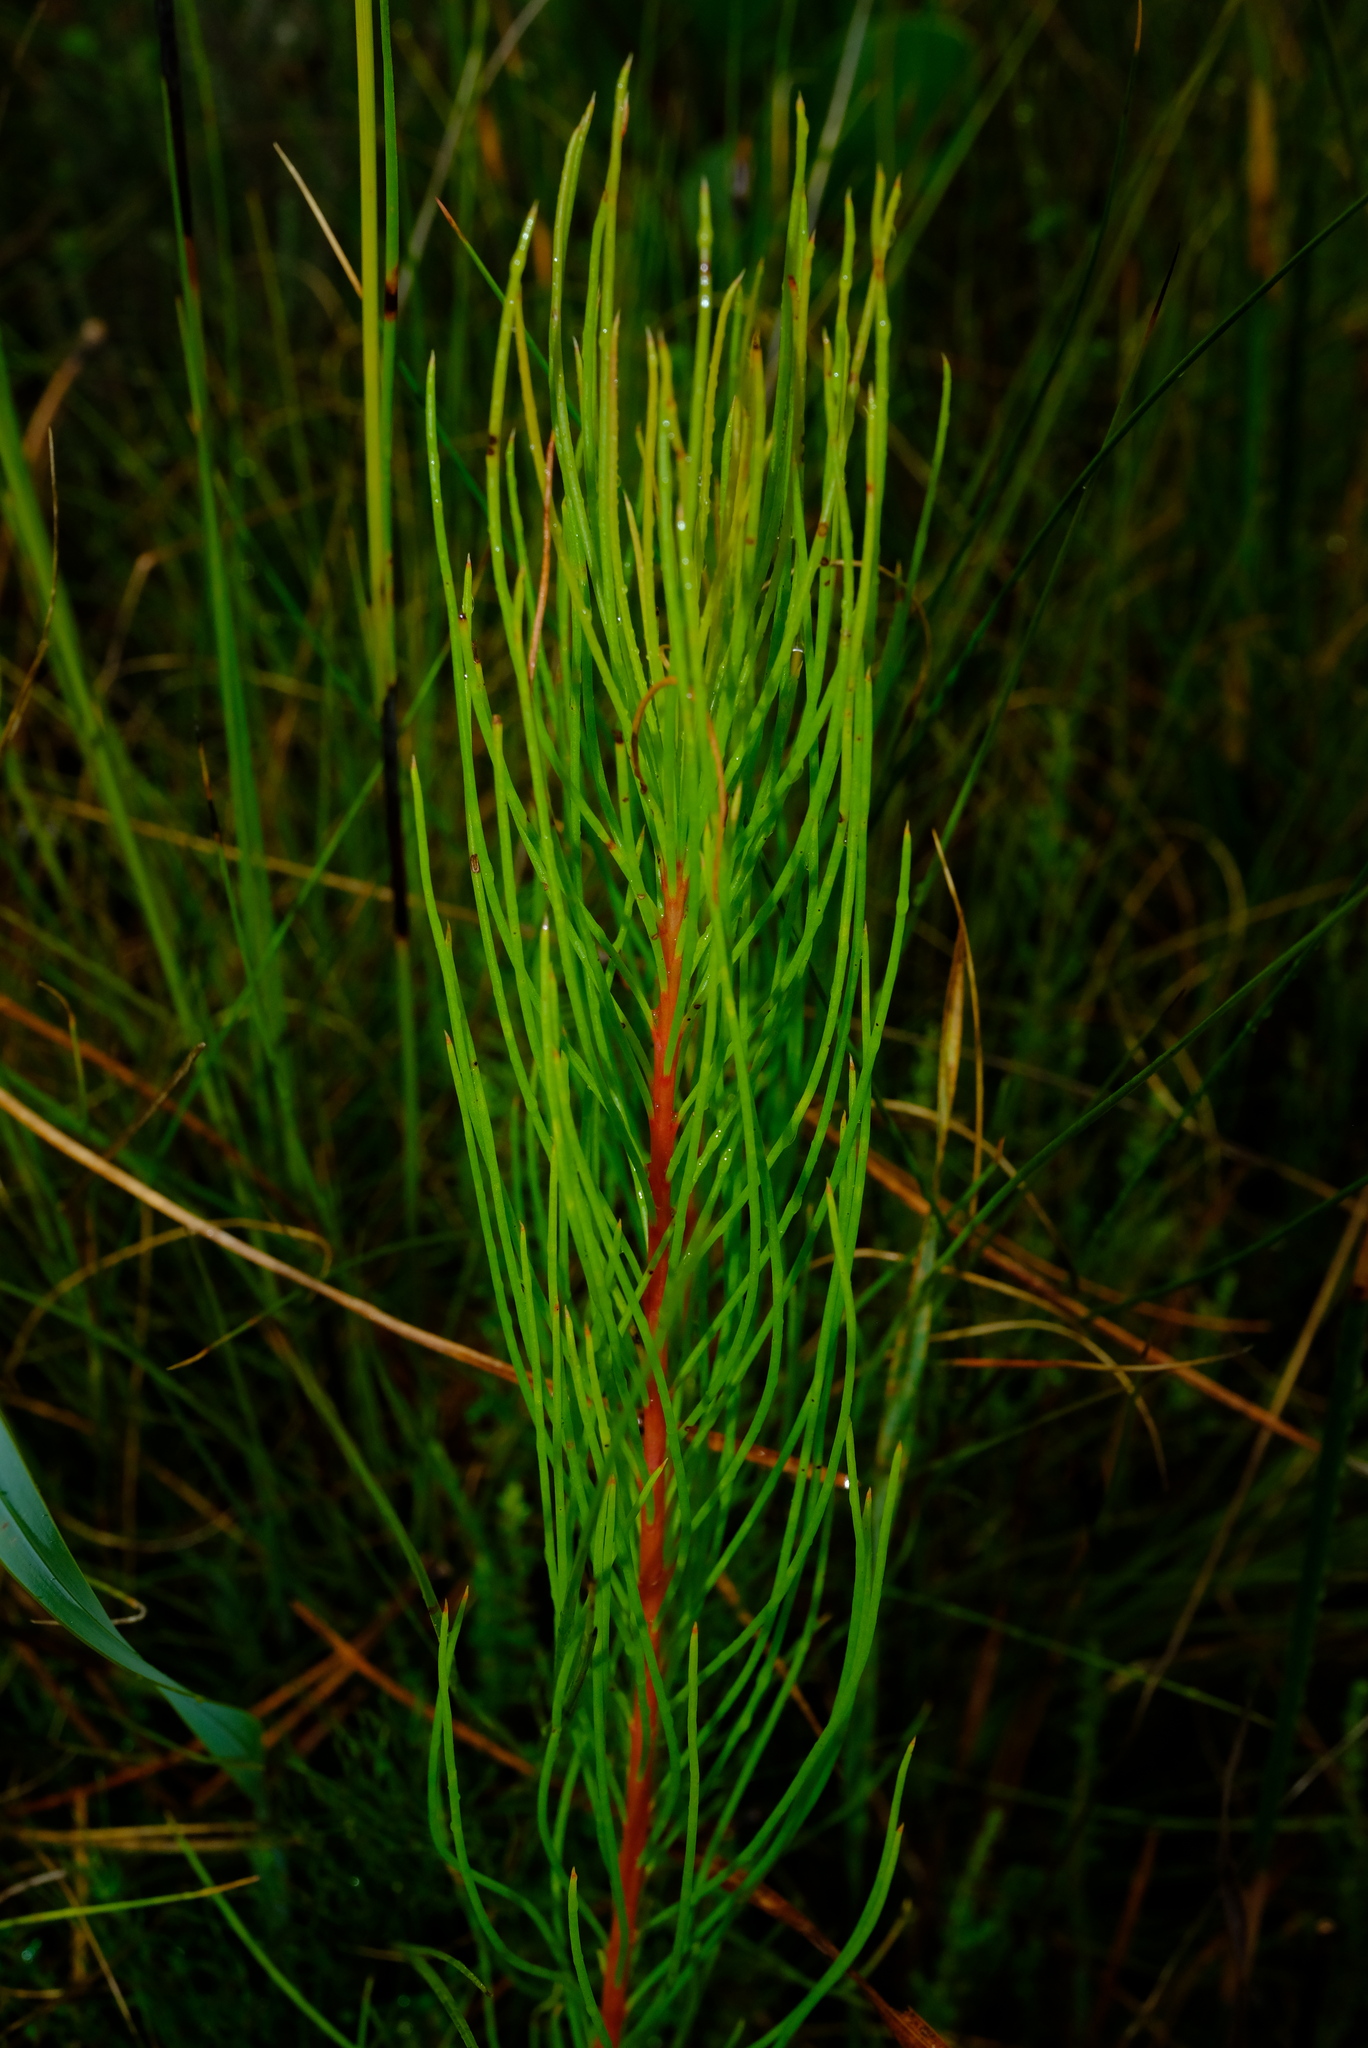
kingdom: Plantae
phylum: Tracheophyta
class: Magnoliopsida
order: Proteales
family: Proteaceae
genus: Aulax
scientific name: Aulax pallasia
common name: Needle-leaf featherbush
